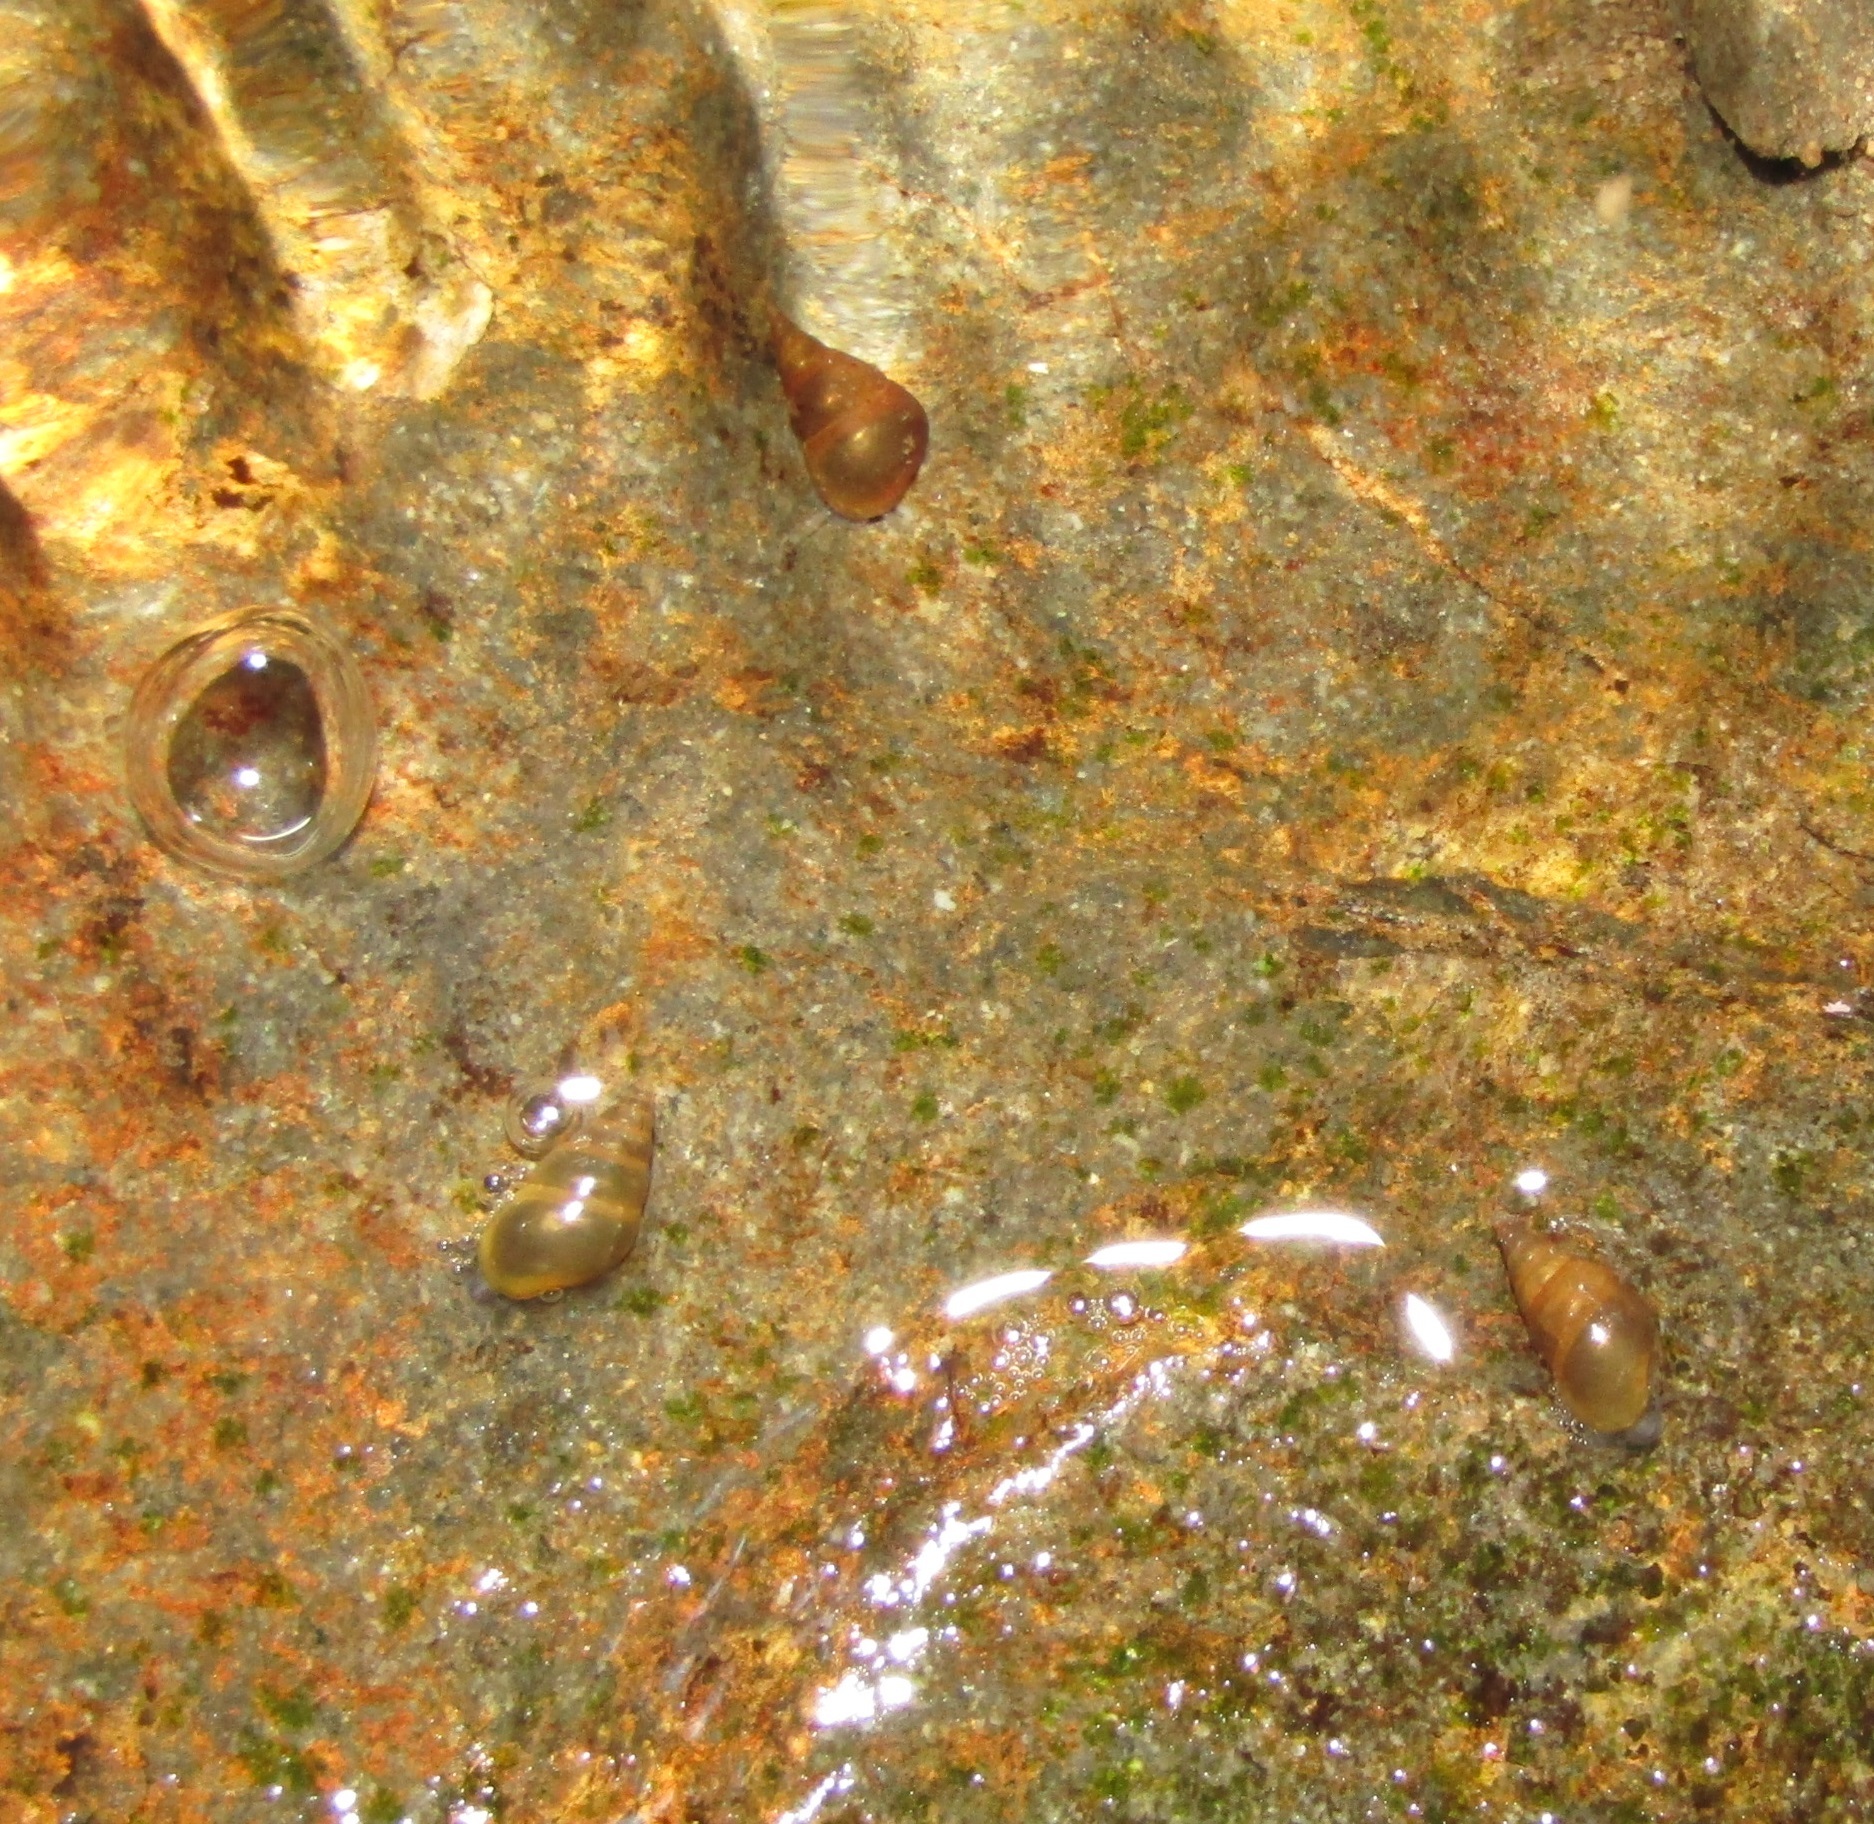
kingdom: Animalia
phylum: Mollusca
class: Gastropoda
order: Littorinimorpha
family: Tateidae
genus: Potamopyrgus
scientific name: Potamopyrgus antipodarum
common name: Jenkins' spire snail
